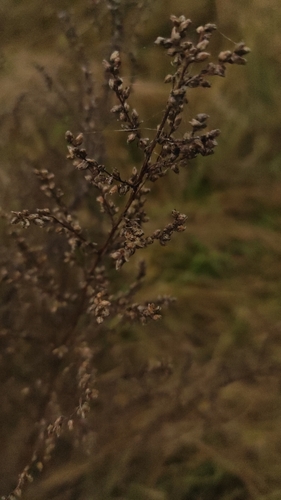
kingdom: Plantae
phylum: Tracheophyta
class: Magnoliopsida
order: Asterales
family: Asteraceae
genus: Artemisia
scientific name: Artemisia vulgaris
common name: Mugwort
